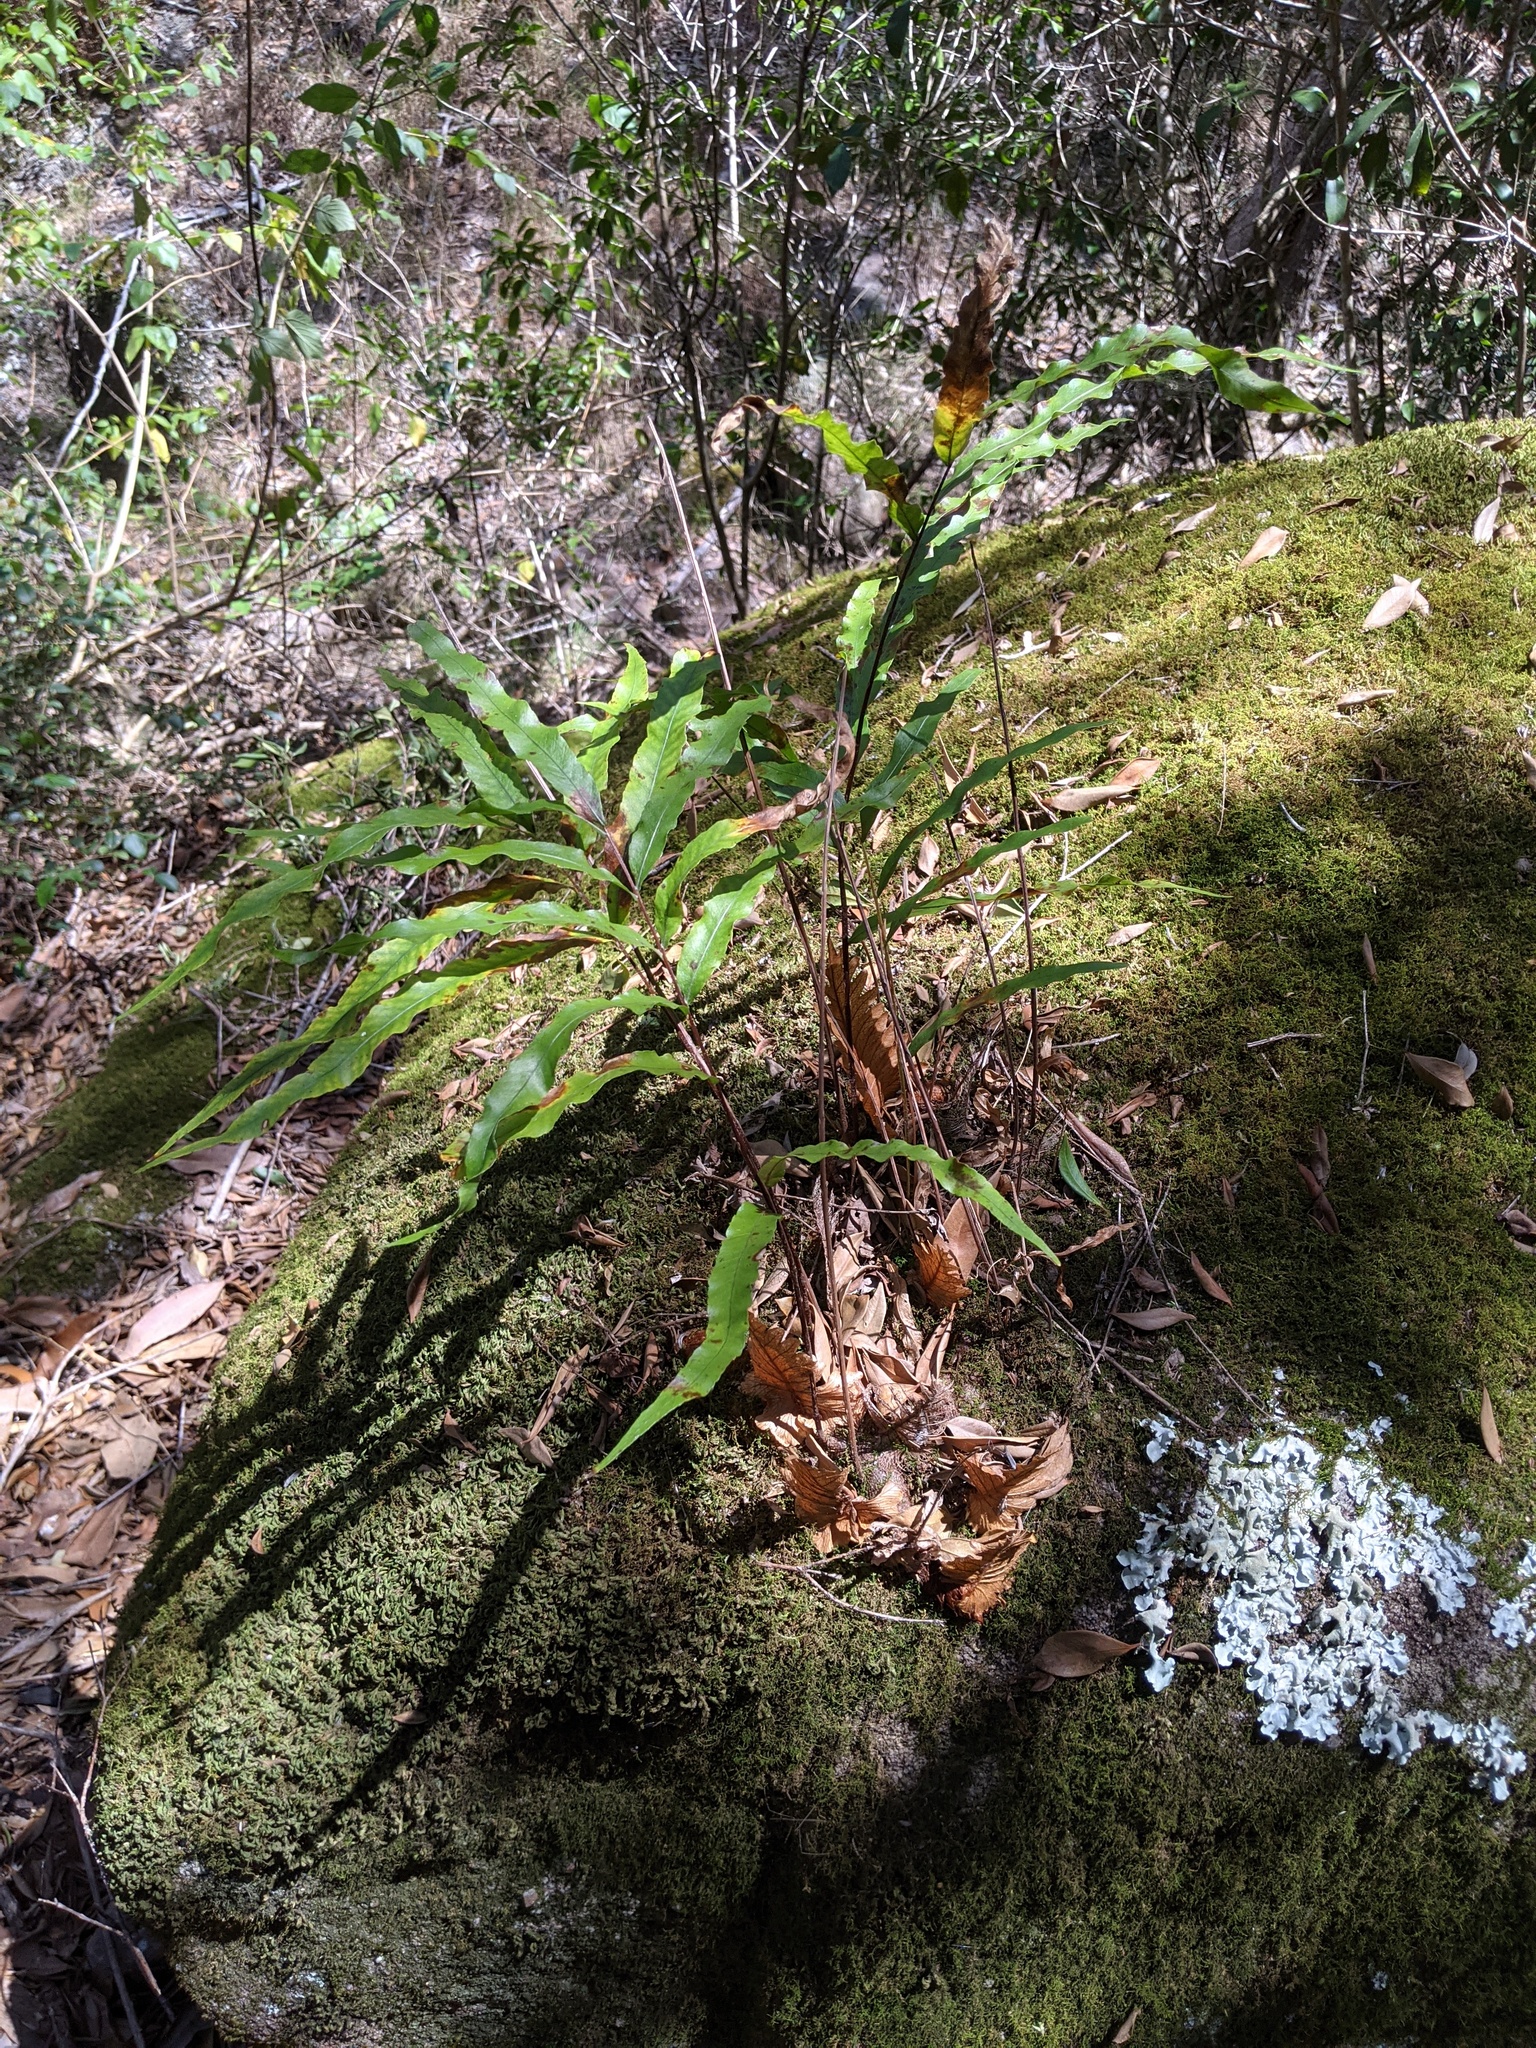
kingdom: Plantae
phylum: Tracheophyta
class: Polypodiopsida
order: Polypodiales
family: Polypodiaceae
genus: Drynaria
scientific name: Drynaria rigidula
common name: Basket fern
